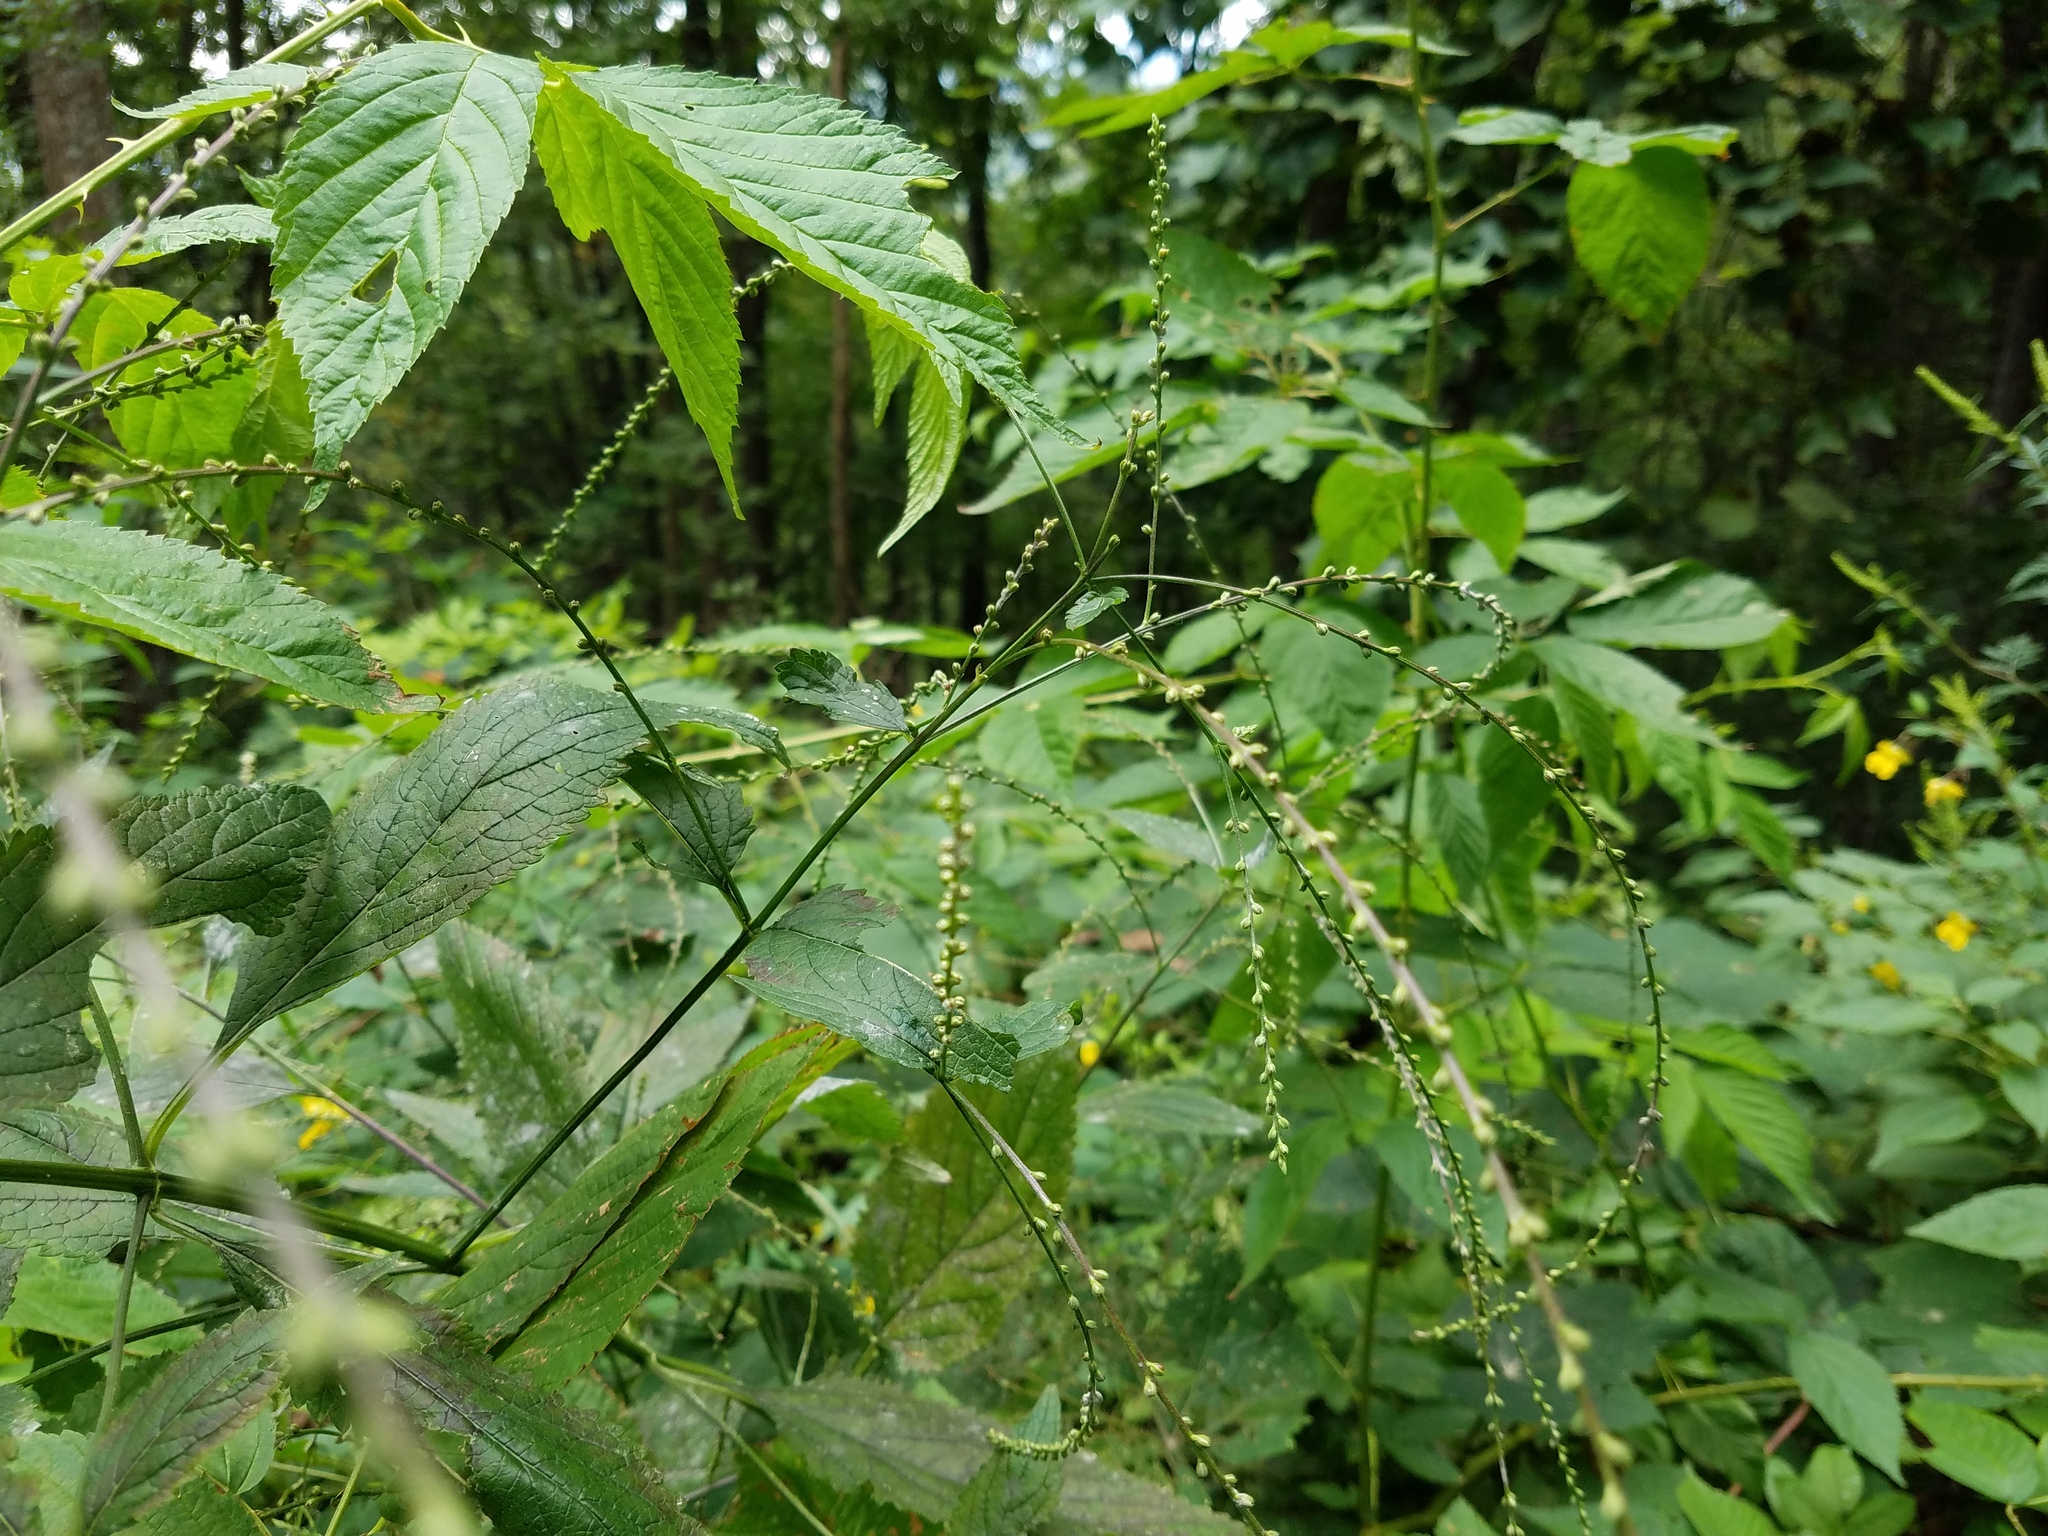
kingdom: Plantae
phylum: Tracheophyta
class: Magnoliopsida
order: Rosales
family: Rosaceae
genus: Aruncus
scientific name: Aruncus dioicus
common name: Buck's-beard
